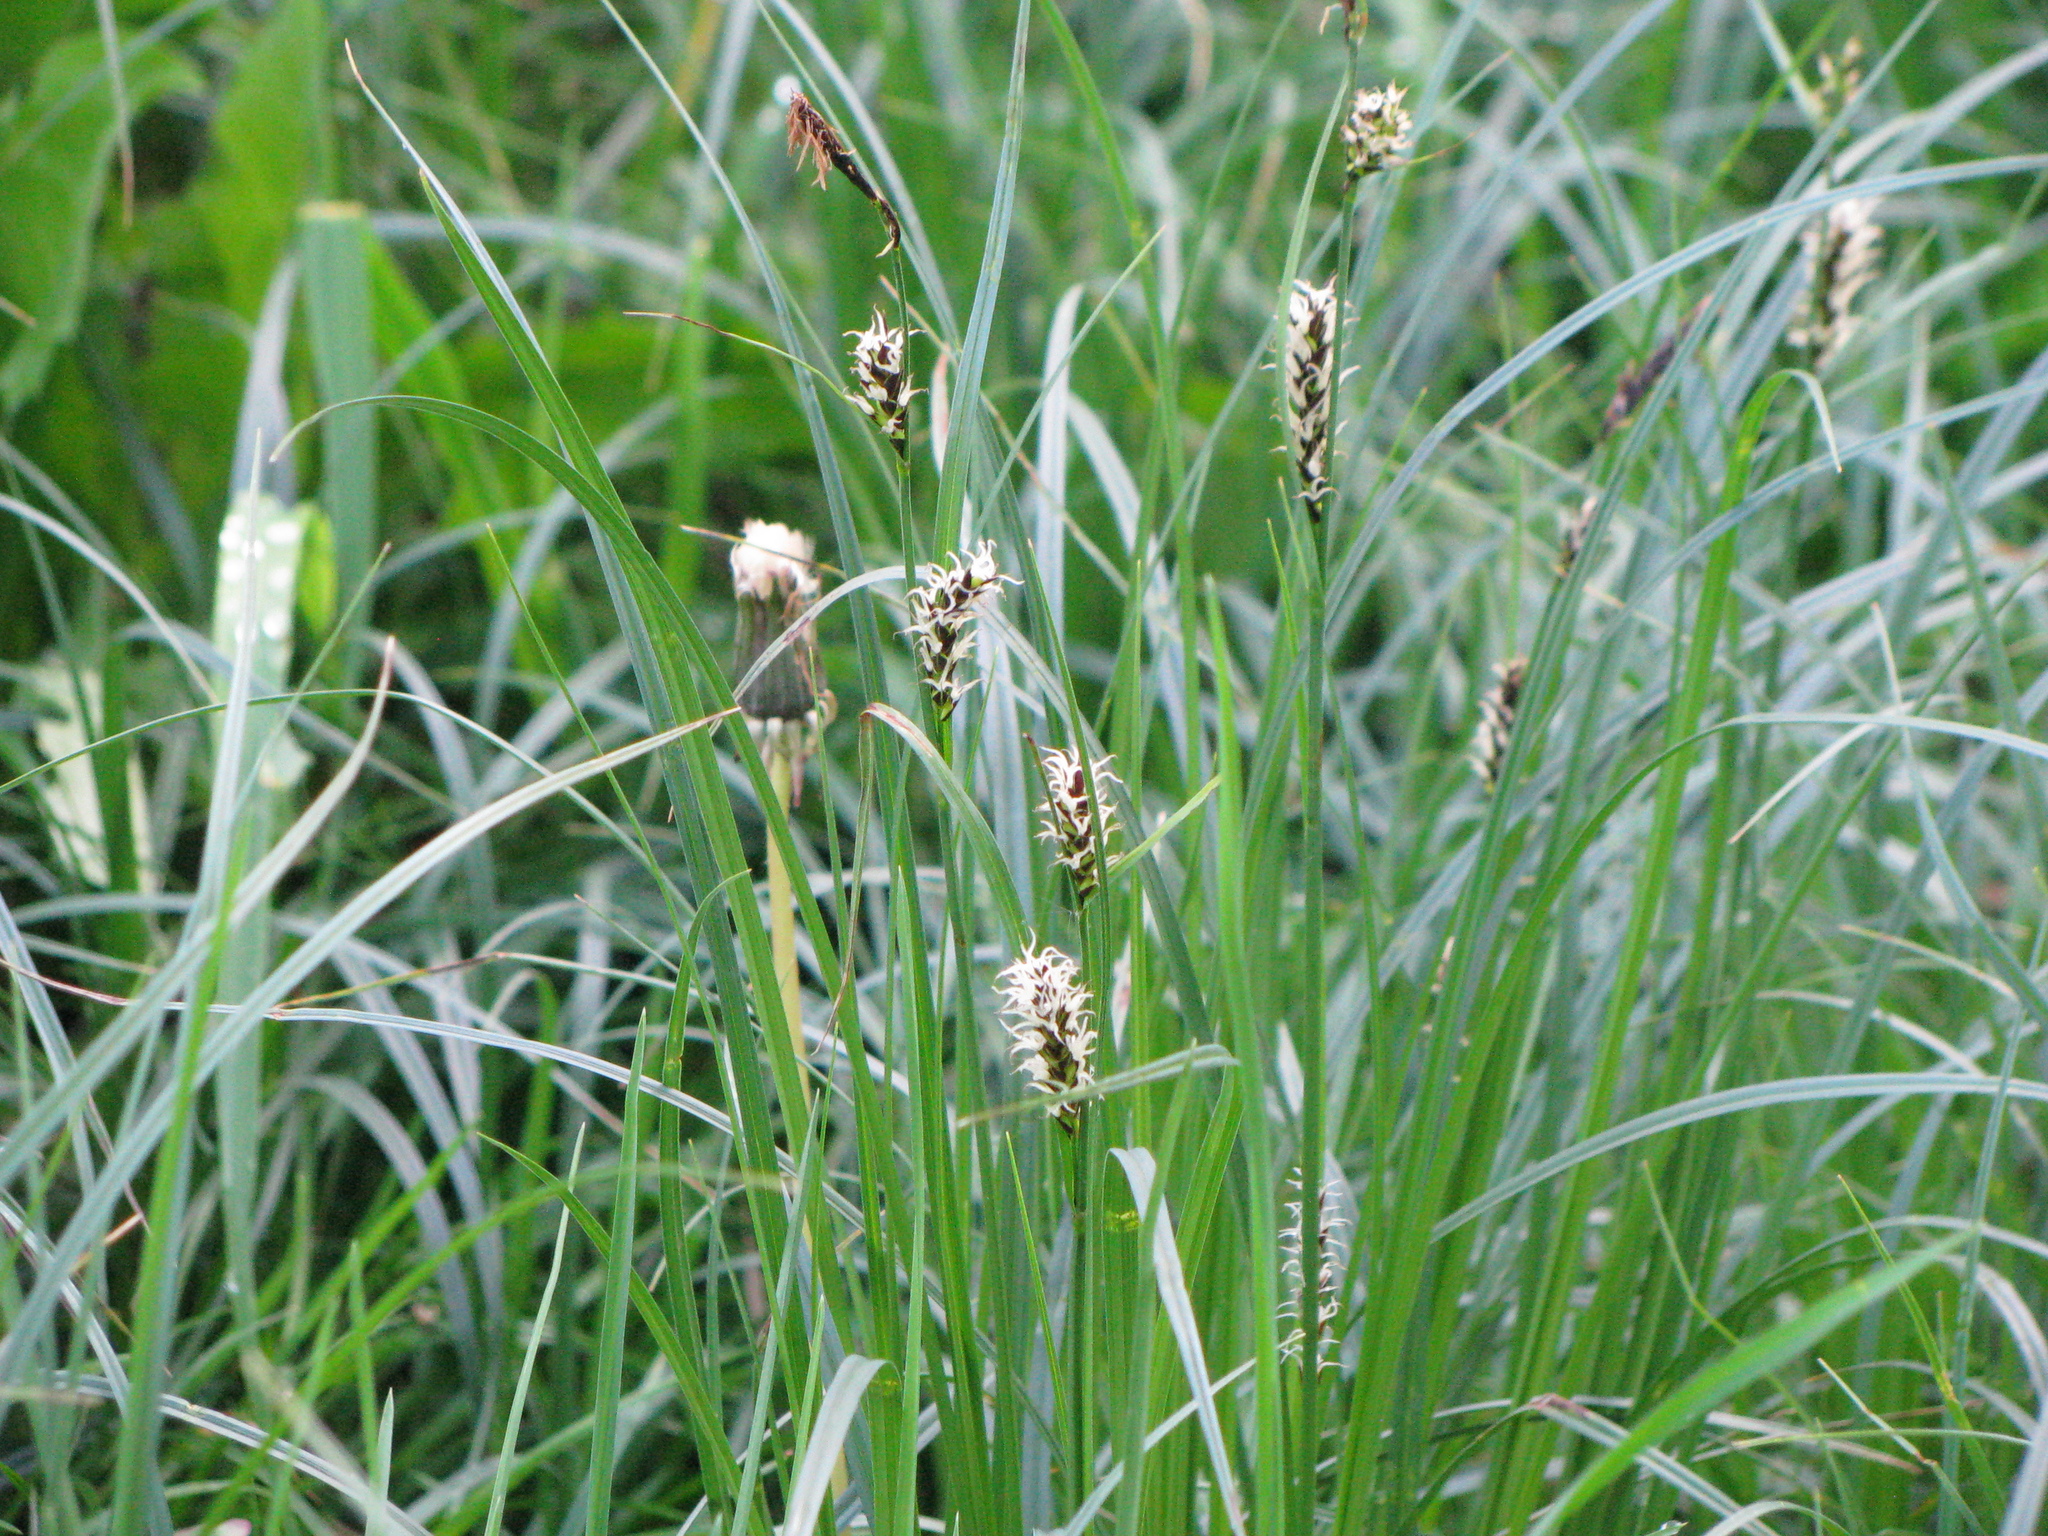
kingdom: Plantae
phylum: Tracheophyta
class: Liliopsida
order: Poales
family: Cyperaceae
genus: Carex
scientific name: Carex melanostachya
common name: Black-spiked sedge
